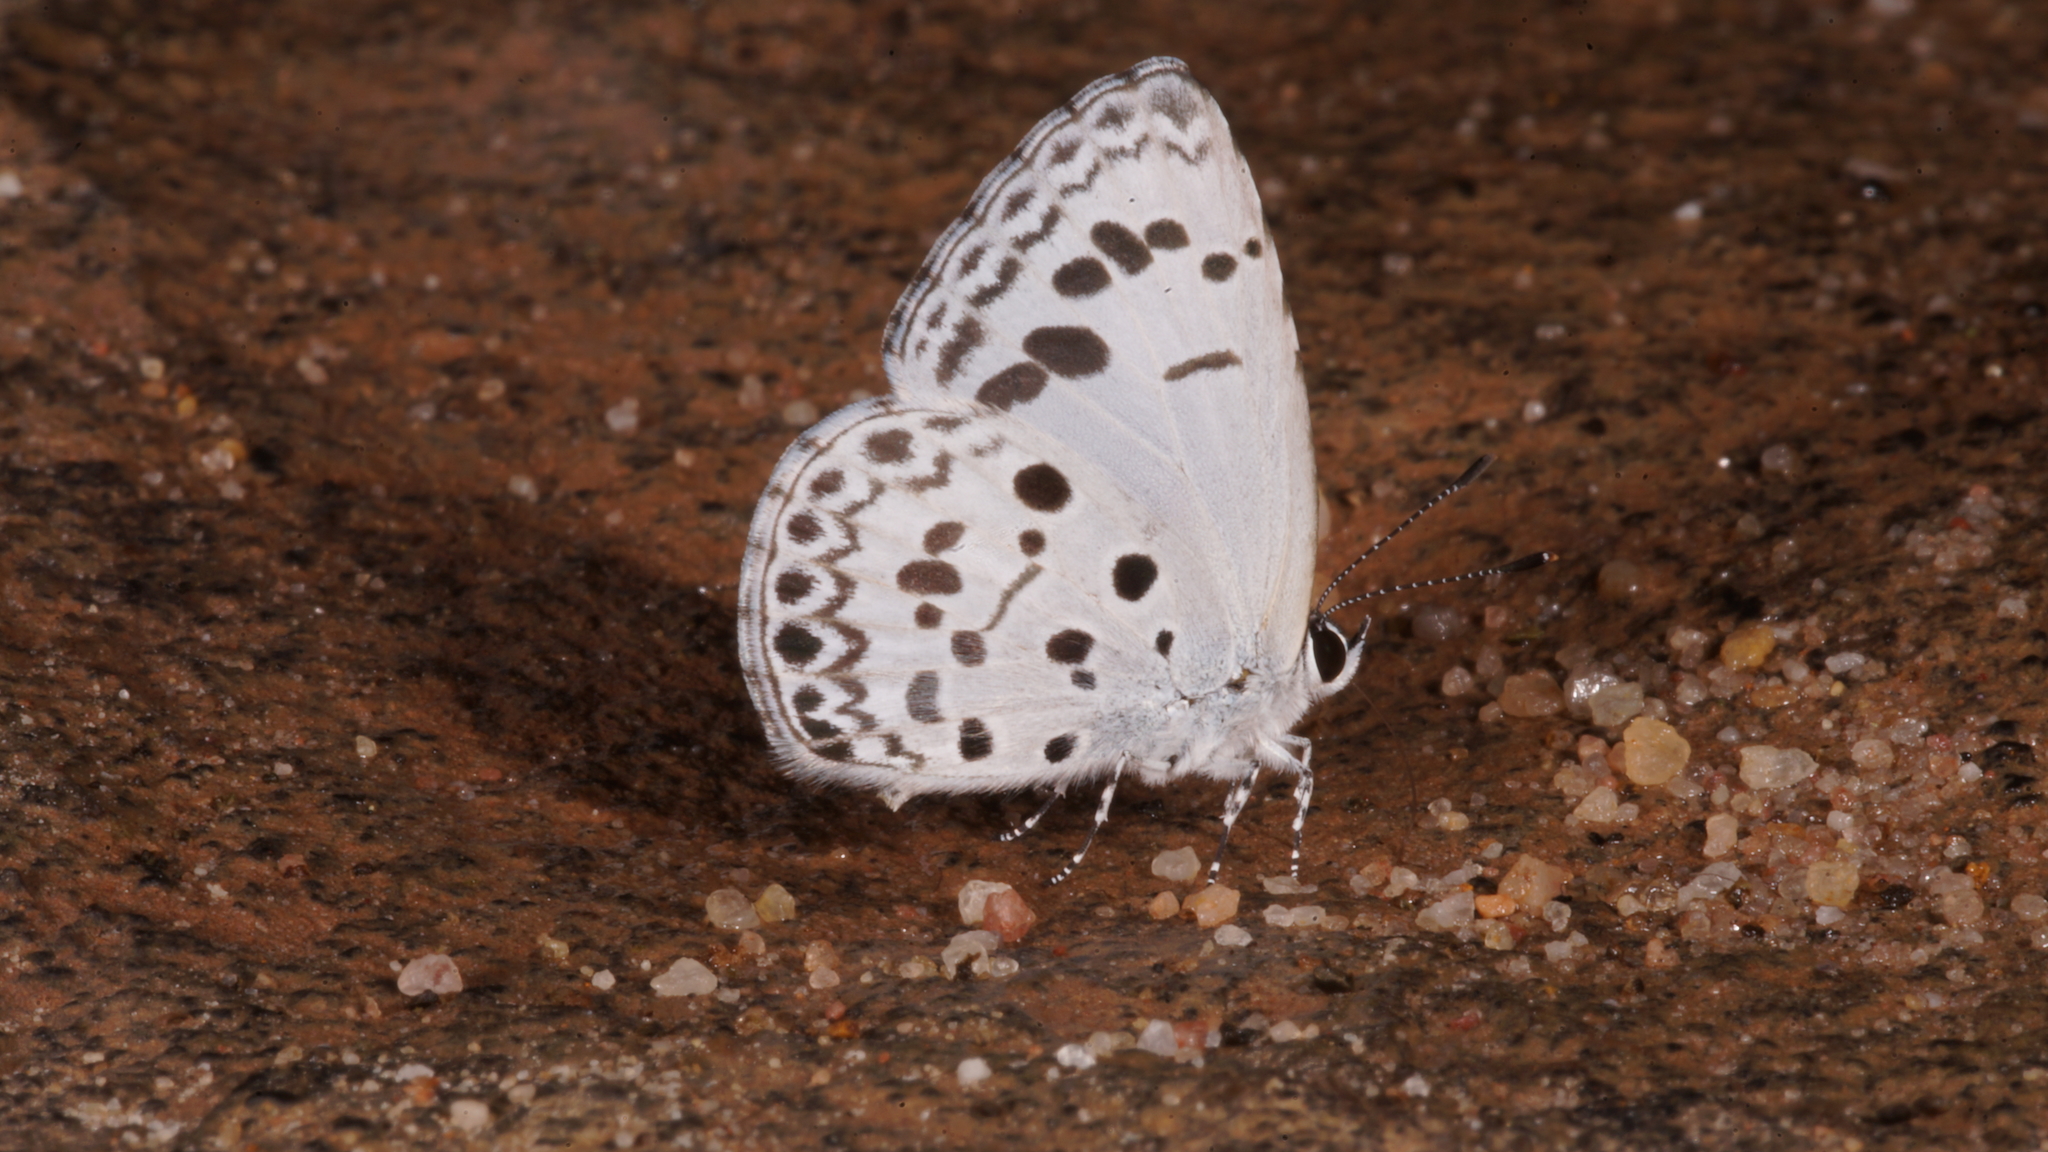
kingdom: Animalia
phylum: Arthropoda
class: Insecta
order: Lepidoptera
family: Lycaenidae
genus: Acytolepis
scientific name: Acytolepis puspa
